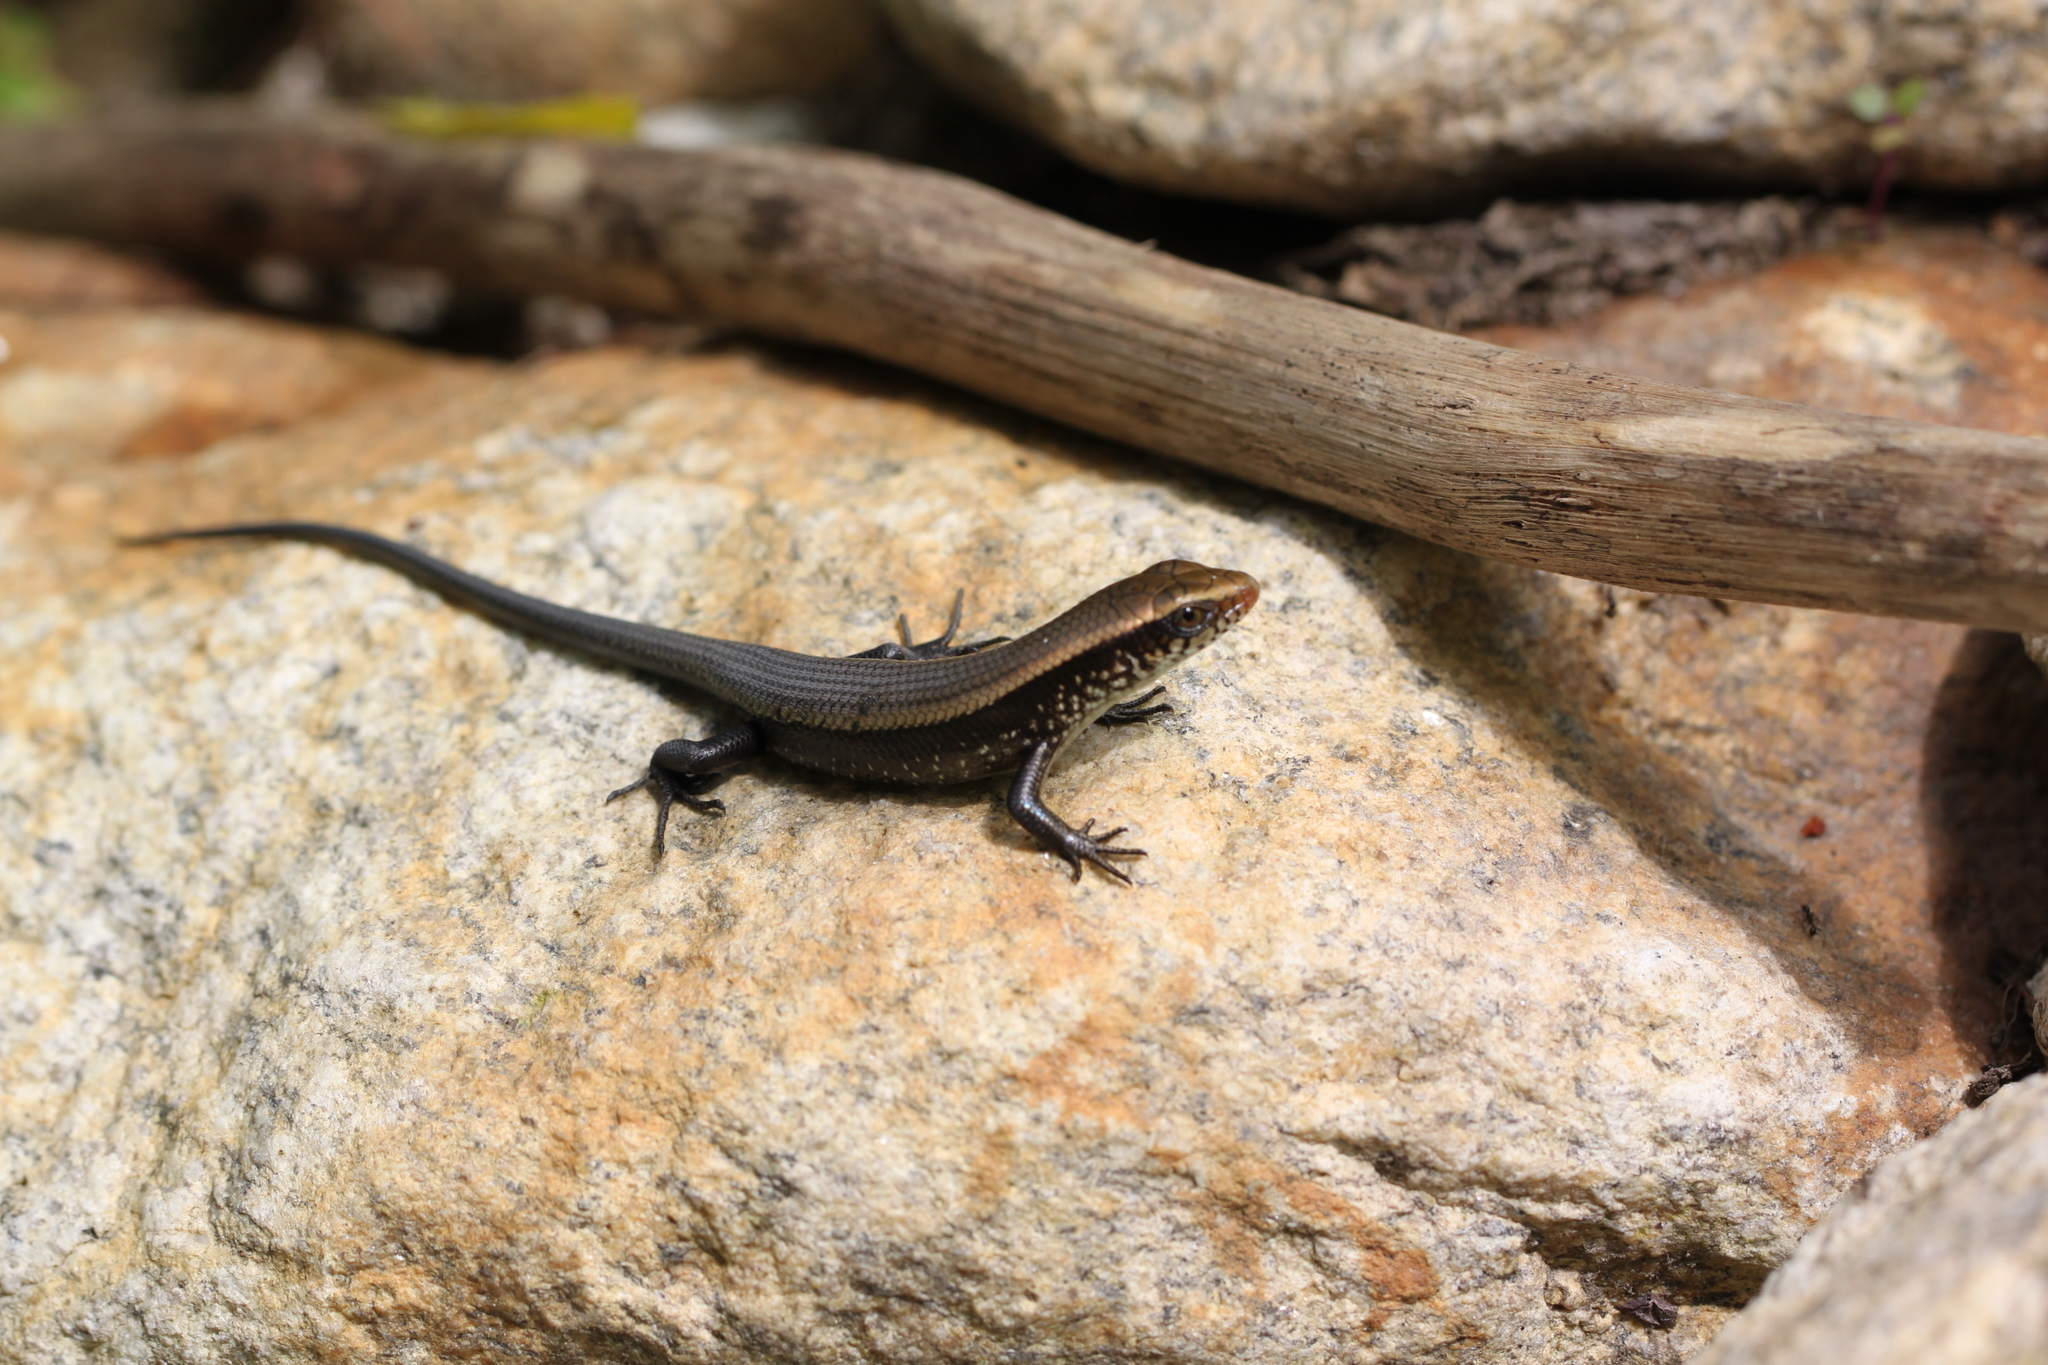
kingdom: Animalia
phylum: Chordata
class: Squamata
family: Scincidae
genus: Eutropis
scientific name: Eutropis multifasciata
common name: Common mabuya
